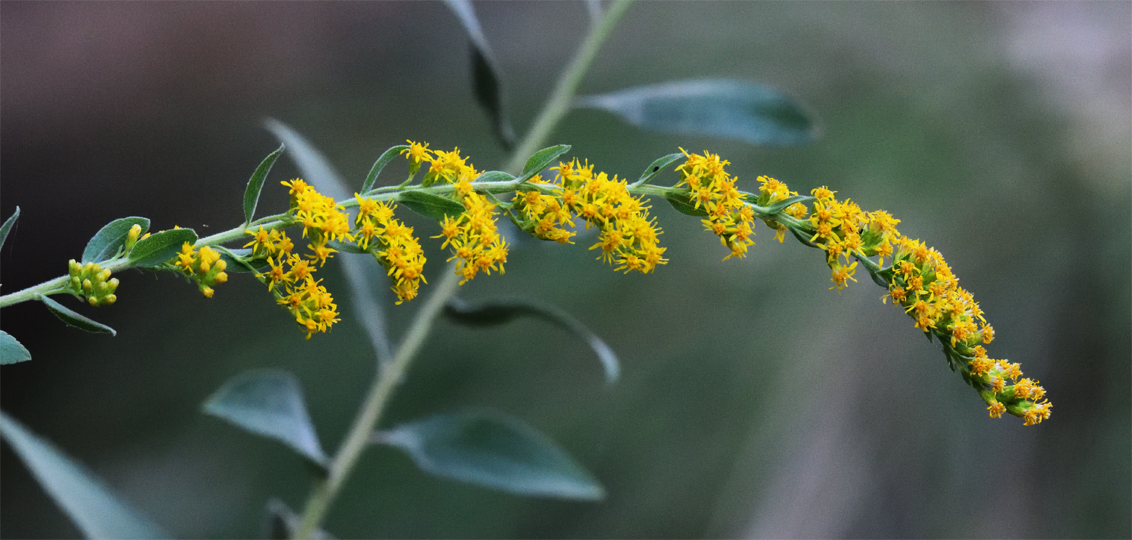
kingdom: Plantae
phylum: Tracheophyta
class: Magnoliopsida
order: Asterales
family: Asteraceae
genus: Solidago
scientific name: Solidago velutina
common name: Three-nerve goldenrod
